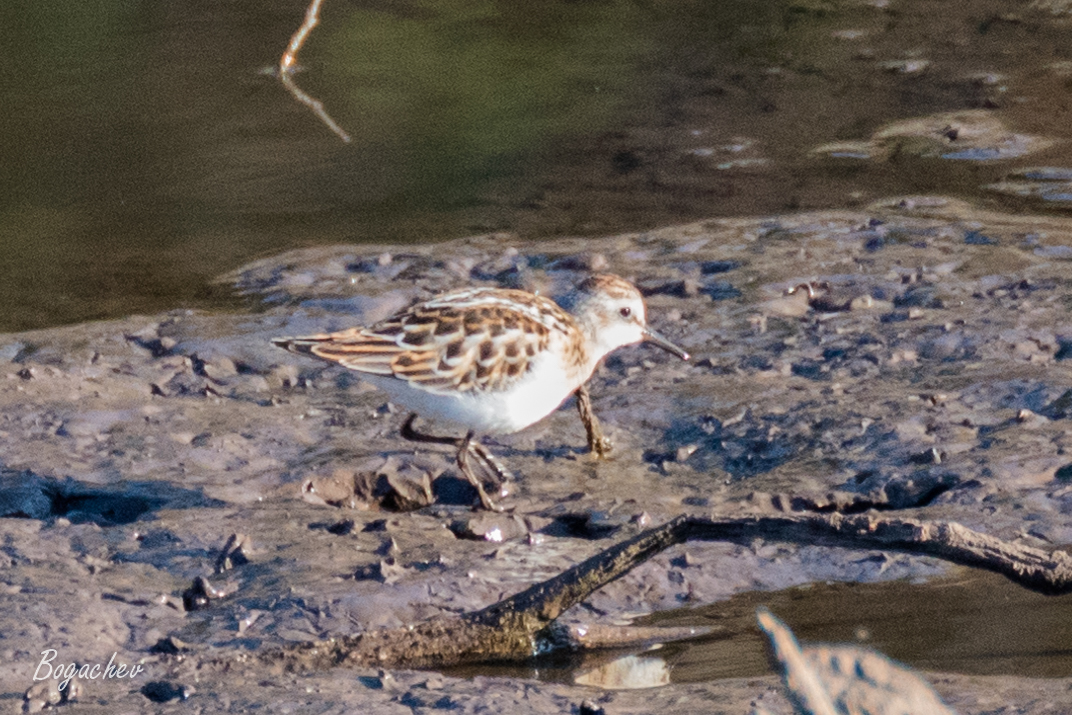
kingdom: Animalia
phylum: Chordata
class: Aves
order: Charadriiformes
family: Scolopacidae
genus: Calidris
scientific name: Calidris minuta
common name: Little stint
